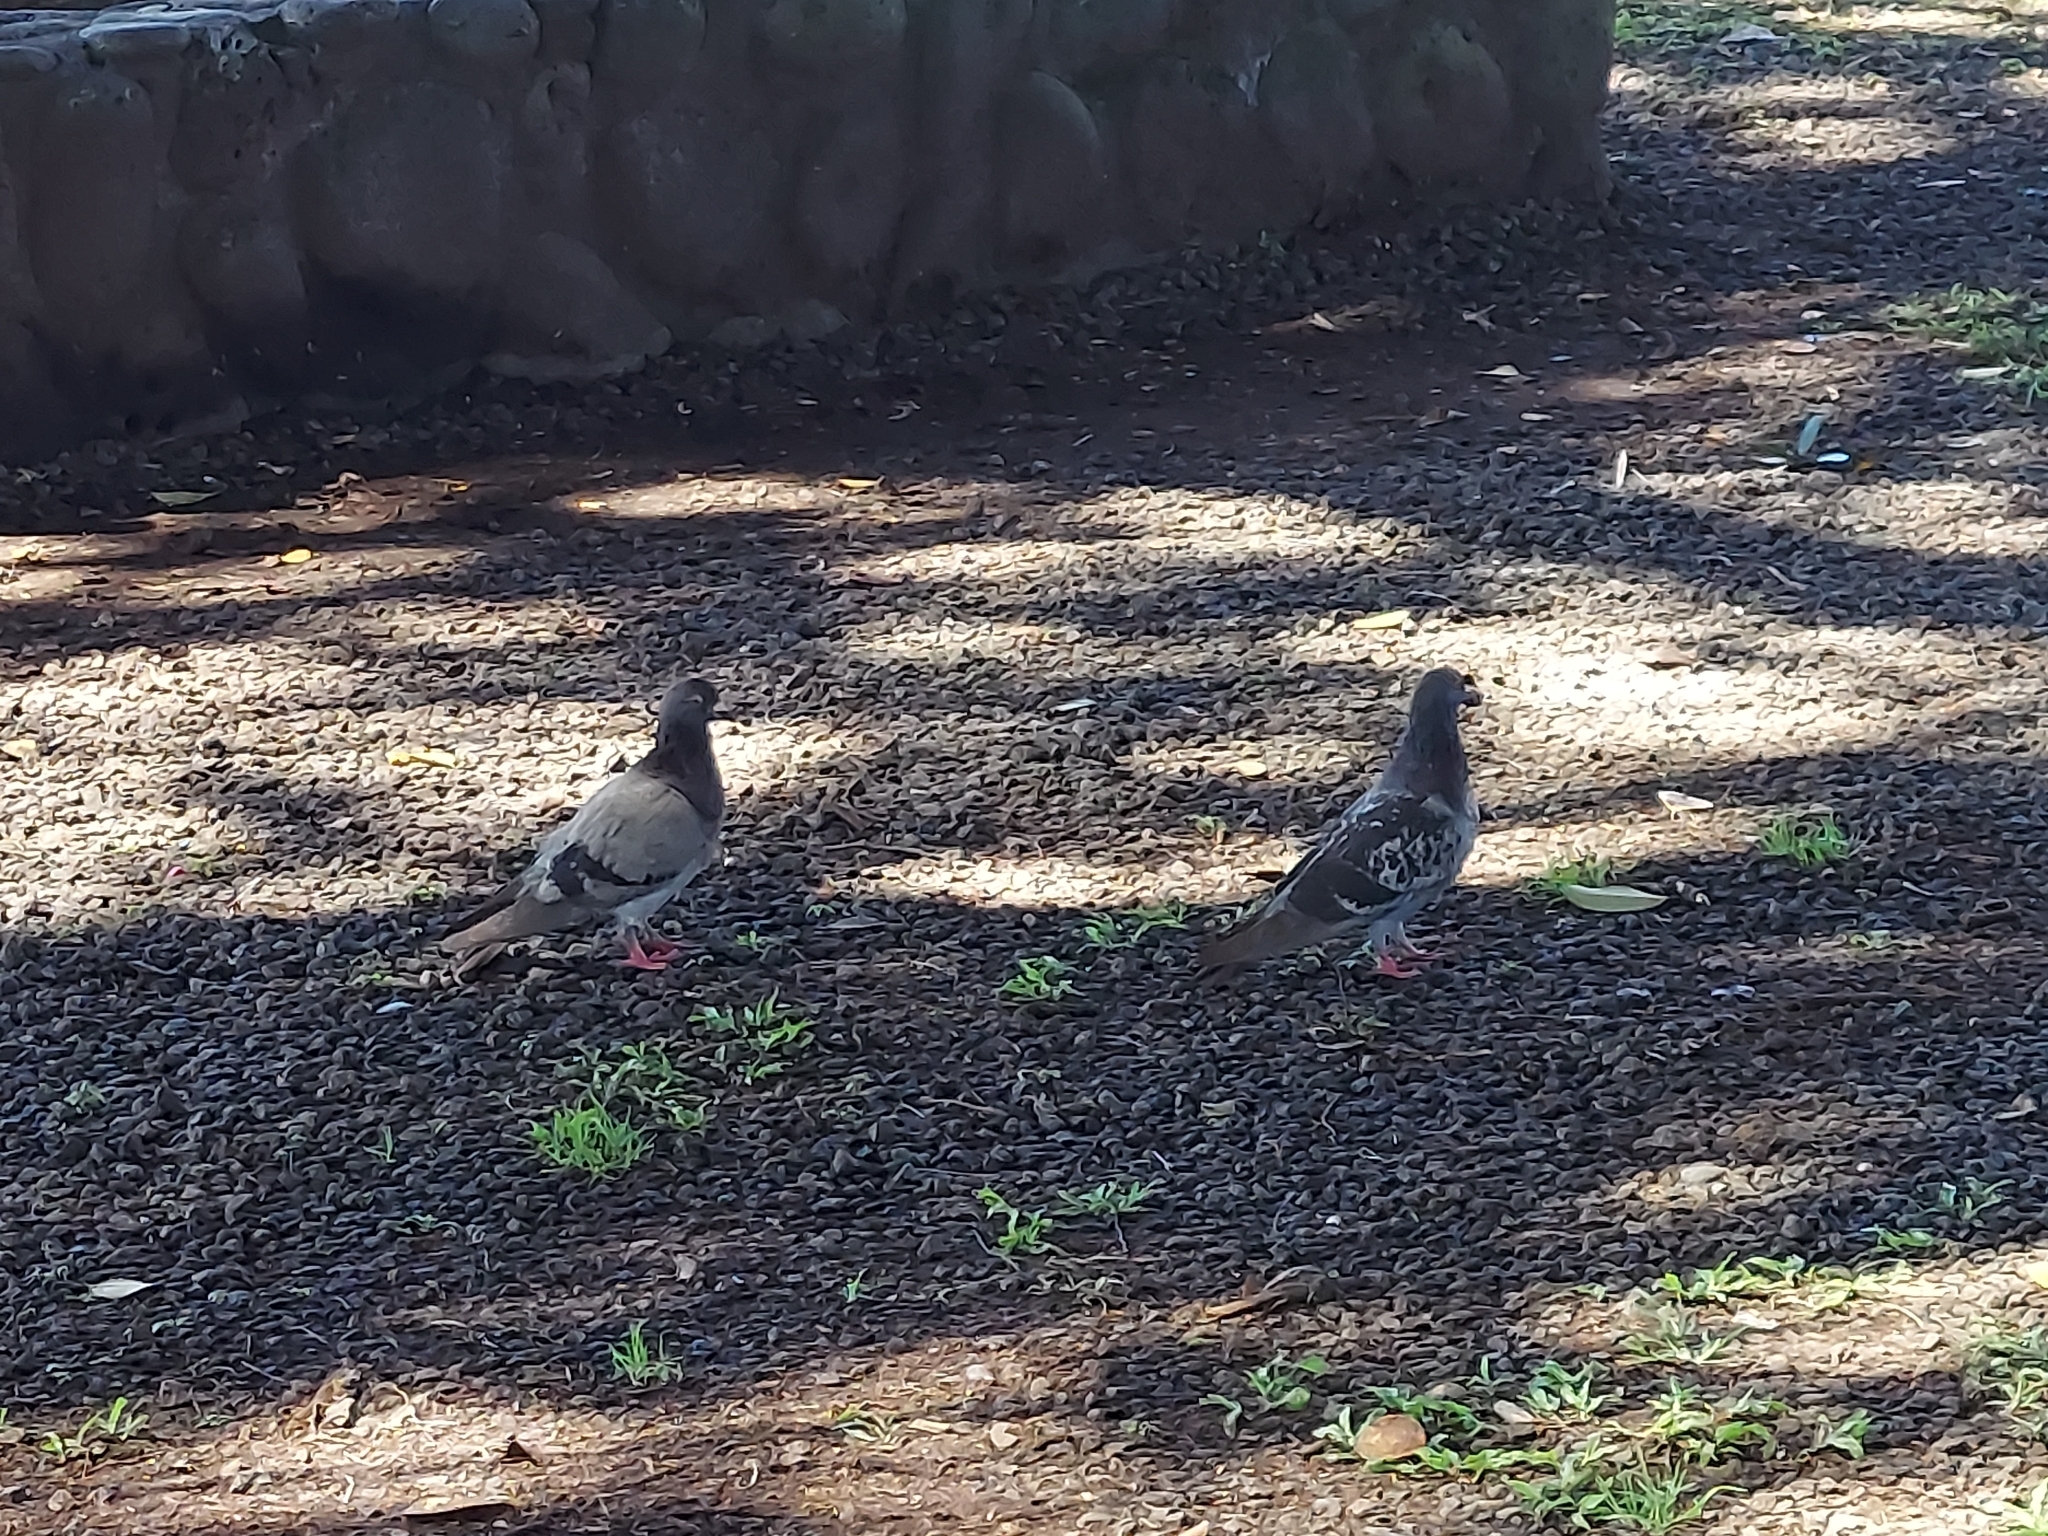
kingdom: Animalia
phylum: Chordata
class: Aves
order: Columbiformes
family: Columbidae
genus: Columba
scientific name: Columba livia
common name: Rock pigeon
